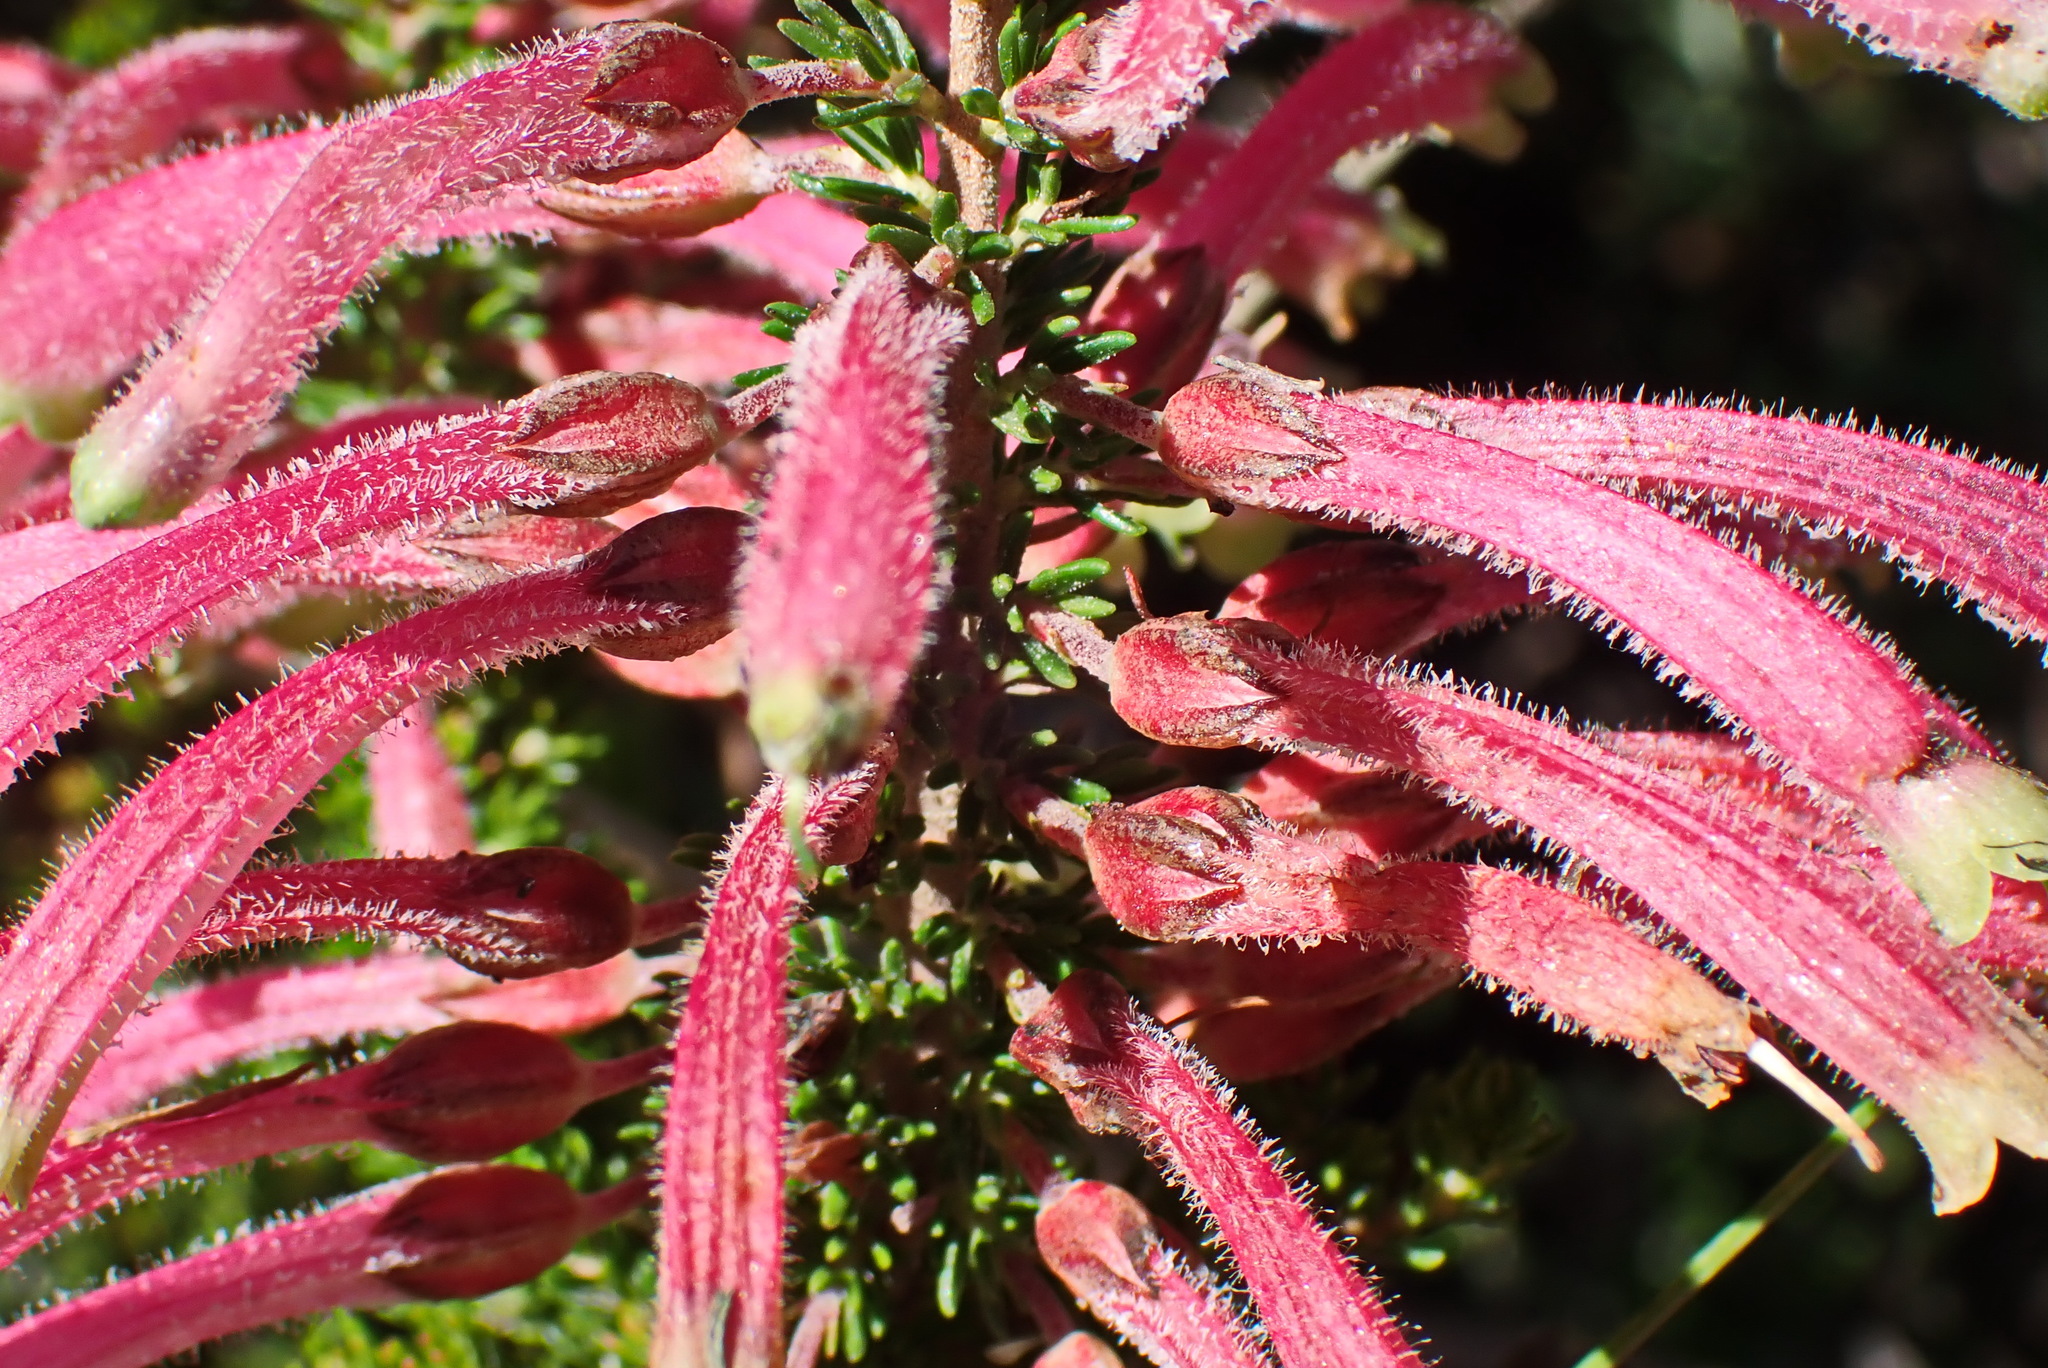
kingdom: Plantae
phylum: Tracheophyta
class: Magnoliopsida
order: Ericales
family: Ericaceae
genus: Erica
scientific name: Erica densifolia
